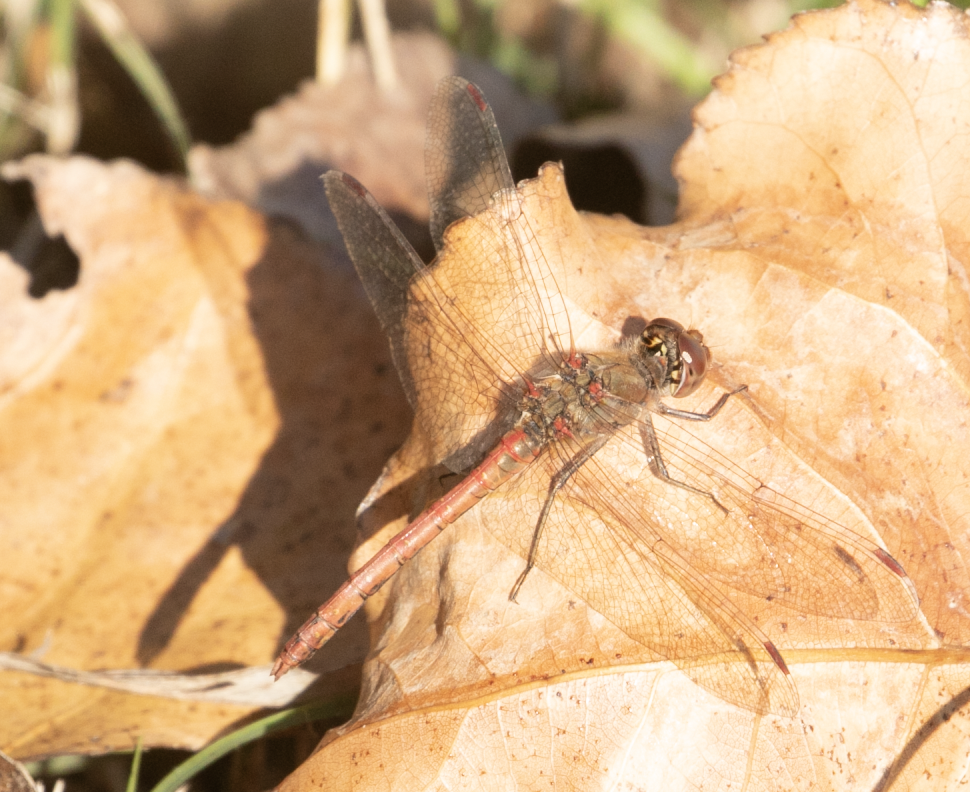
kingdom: Animalia
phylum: Arthropoda
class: Insecta
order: Odonata
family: Libellulidae
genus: Sympetrum
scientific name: Sympetrum striolatum
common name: Common darter
